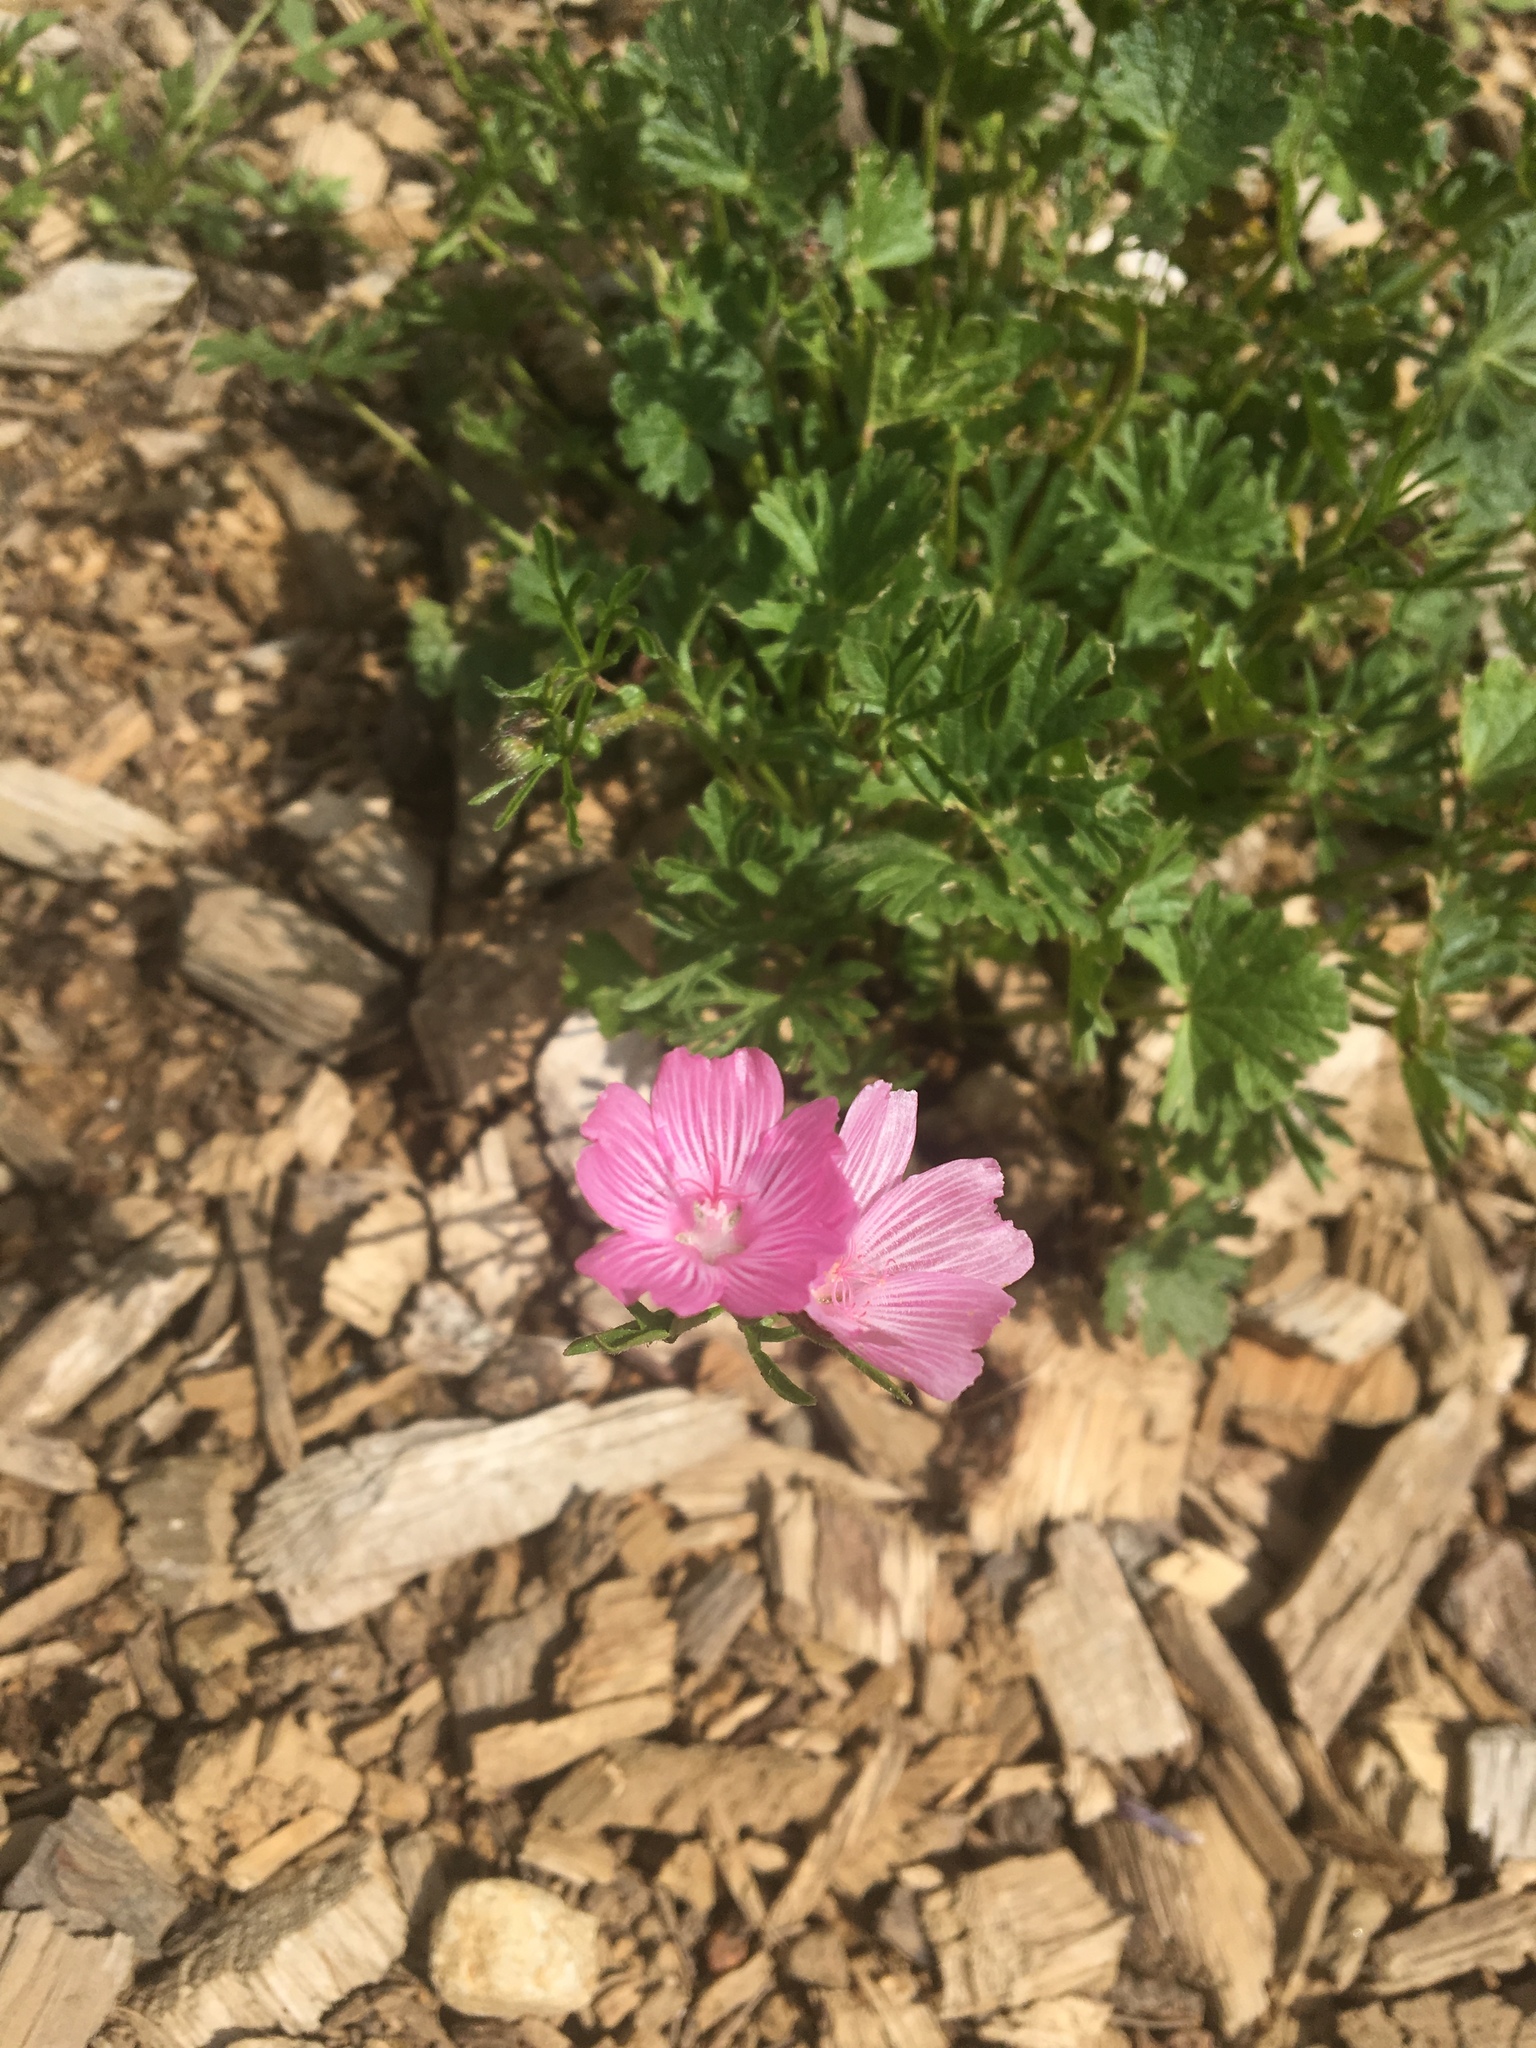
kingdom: Plantae
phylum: Tracheophyta
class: Magnoliopsida
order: Malvales
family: Malvaceae
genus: Sidalcea
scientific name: Sidalcea malviflora
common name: Greek mallow
